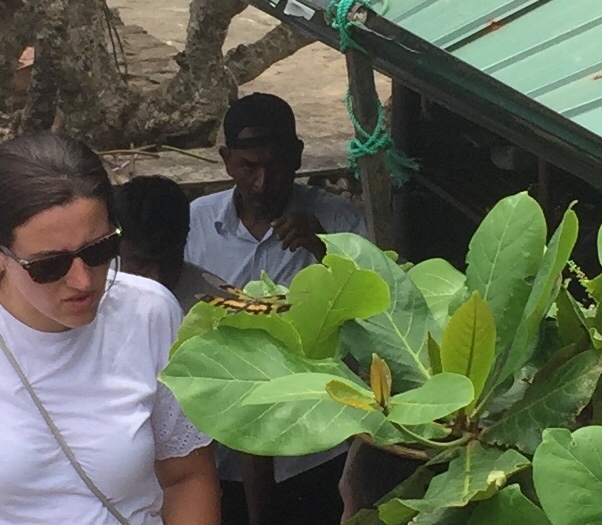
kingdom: Animalia
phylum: Arthropoda
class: Insecta
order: Odonata
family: Libellulidae
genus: Rhyothemis
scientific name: Rhyothemis variegata
